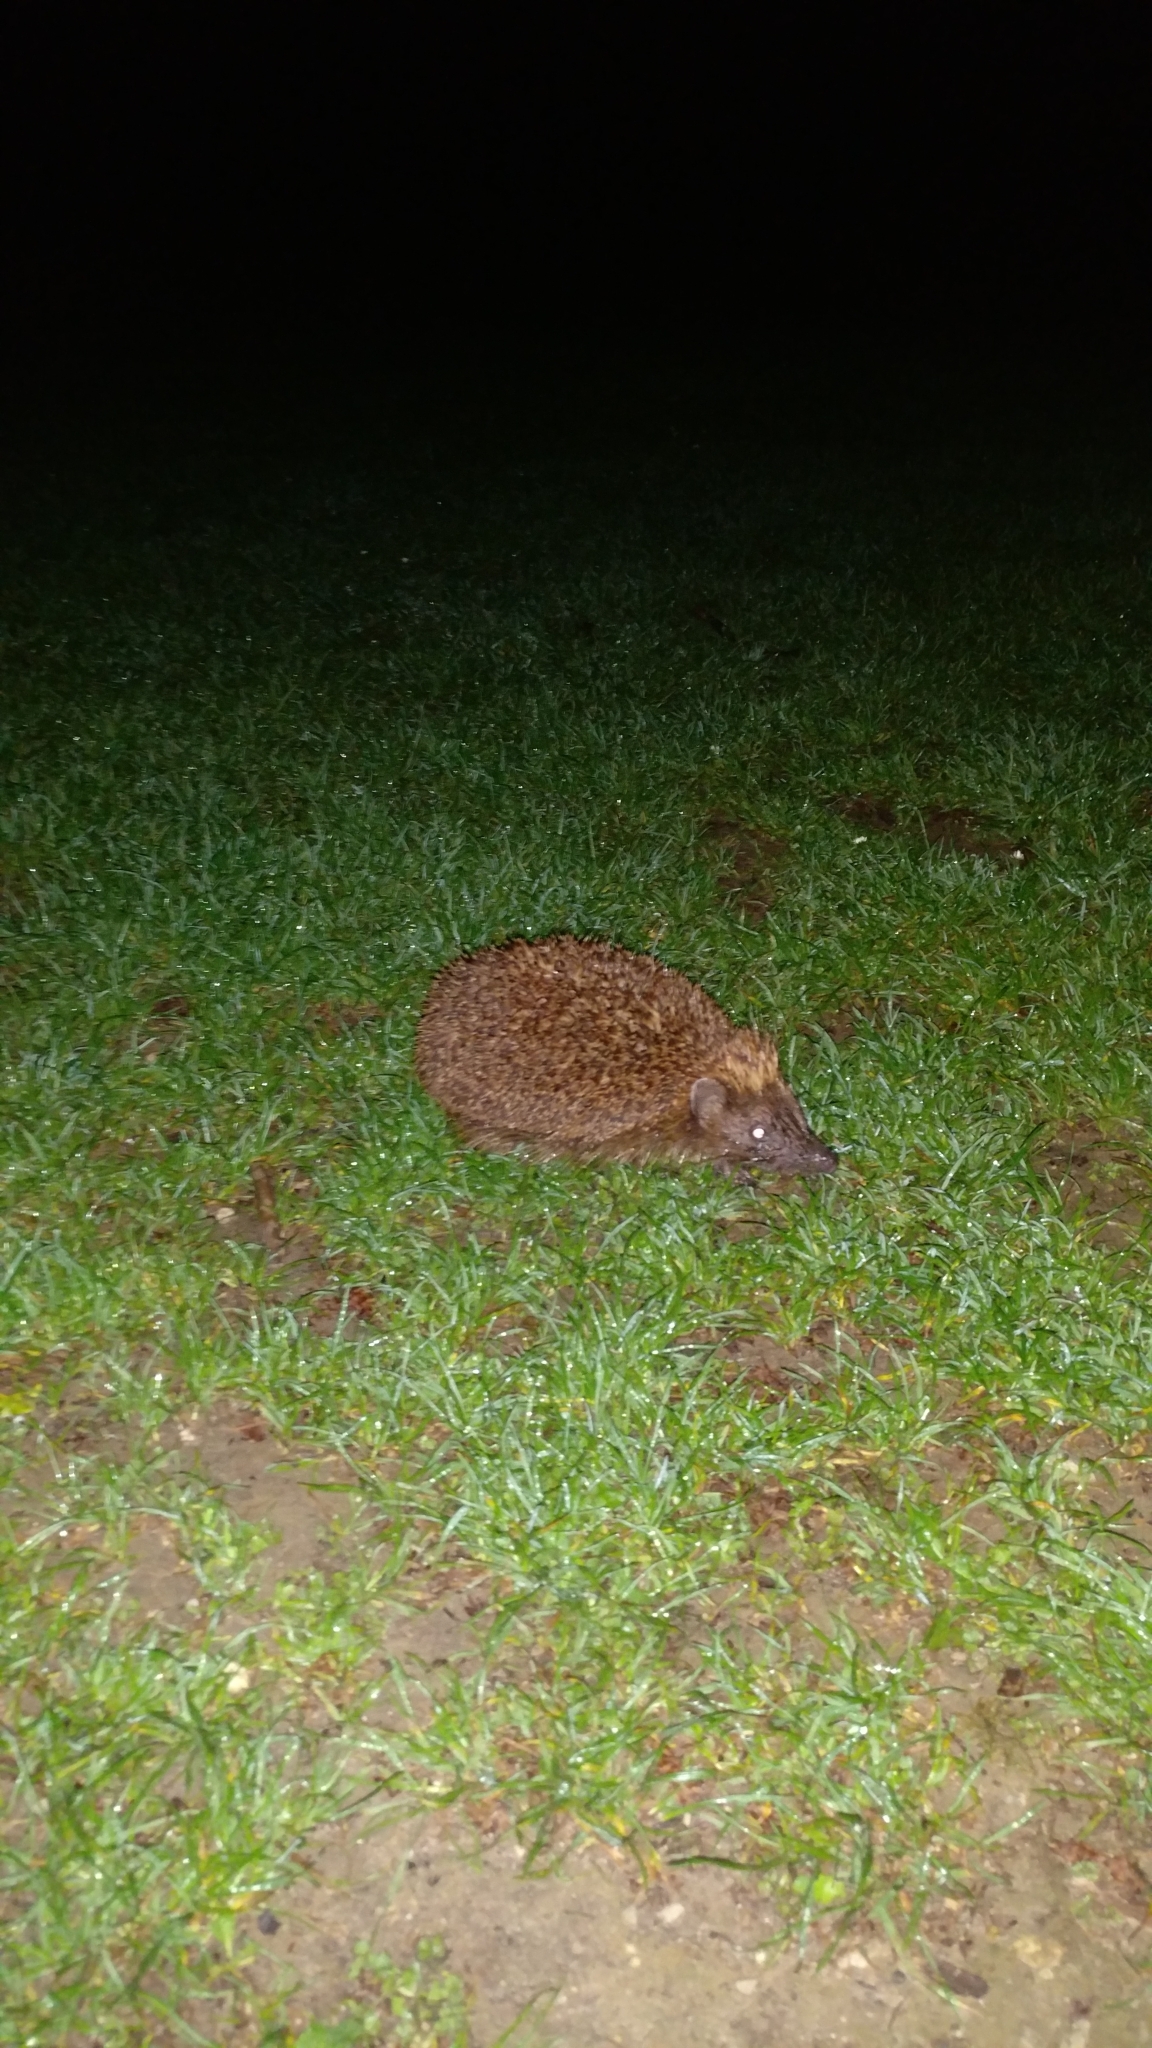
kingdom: Animalia
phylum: Chordata
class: Mammalia
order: Erinaceomorpha
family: Erinaceidae
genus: Erinaceus
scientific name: Erinaceus europaeus
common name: West european hedgehog
